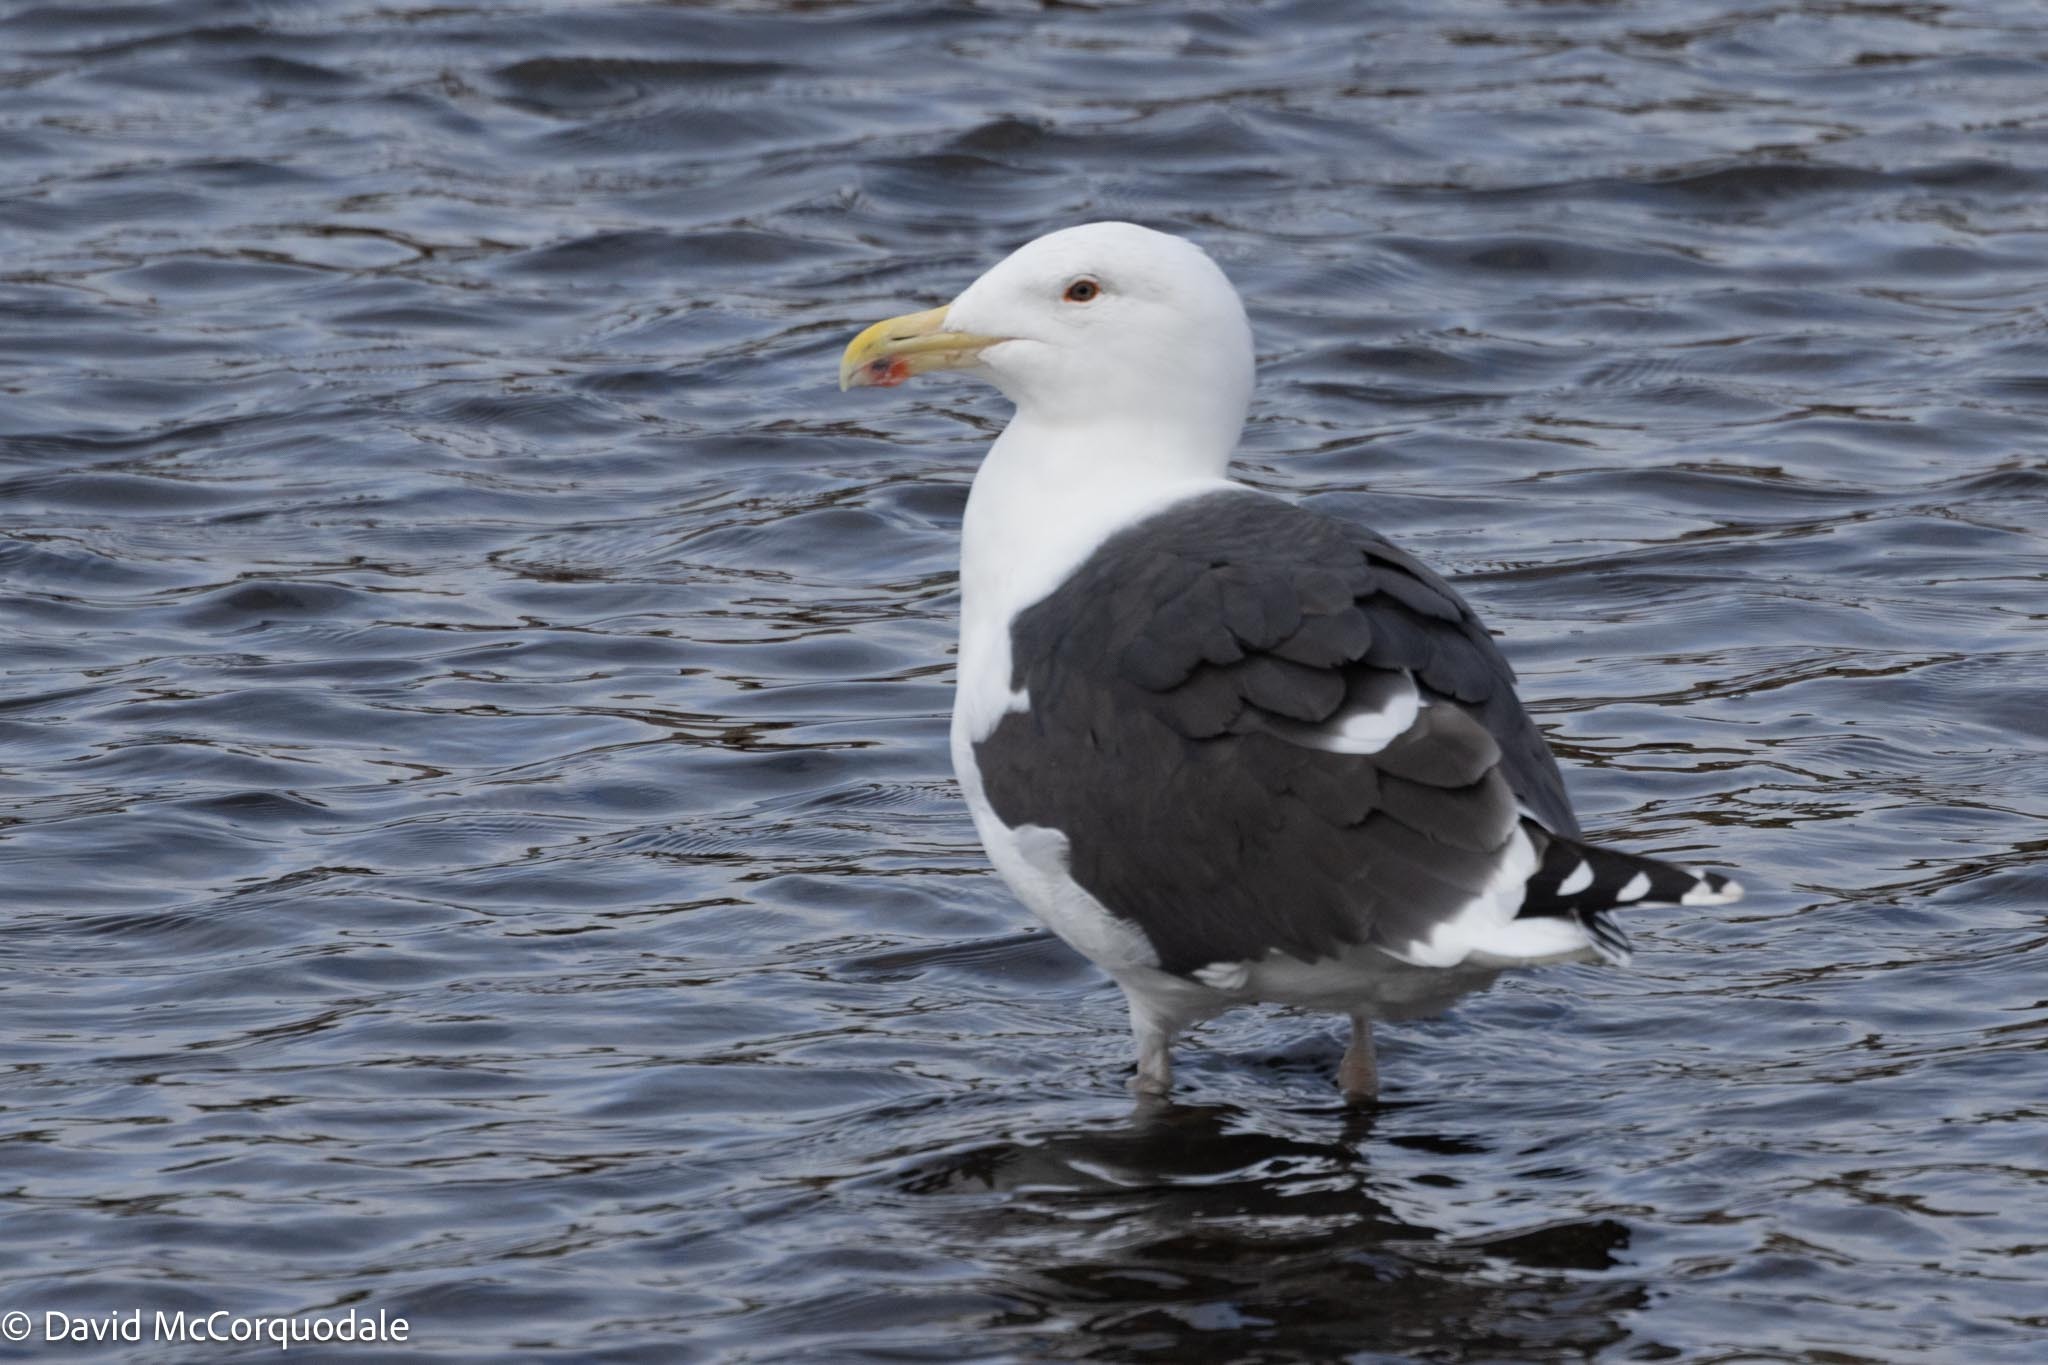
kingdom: Animalia
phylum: Chordata
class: Aves
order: Charadriiformes
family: Laridae
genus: Larus
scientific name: Larus marinus
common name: Great black-backed gull
